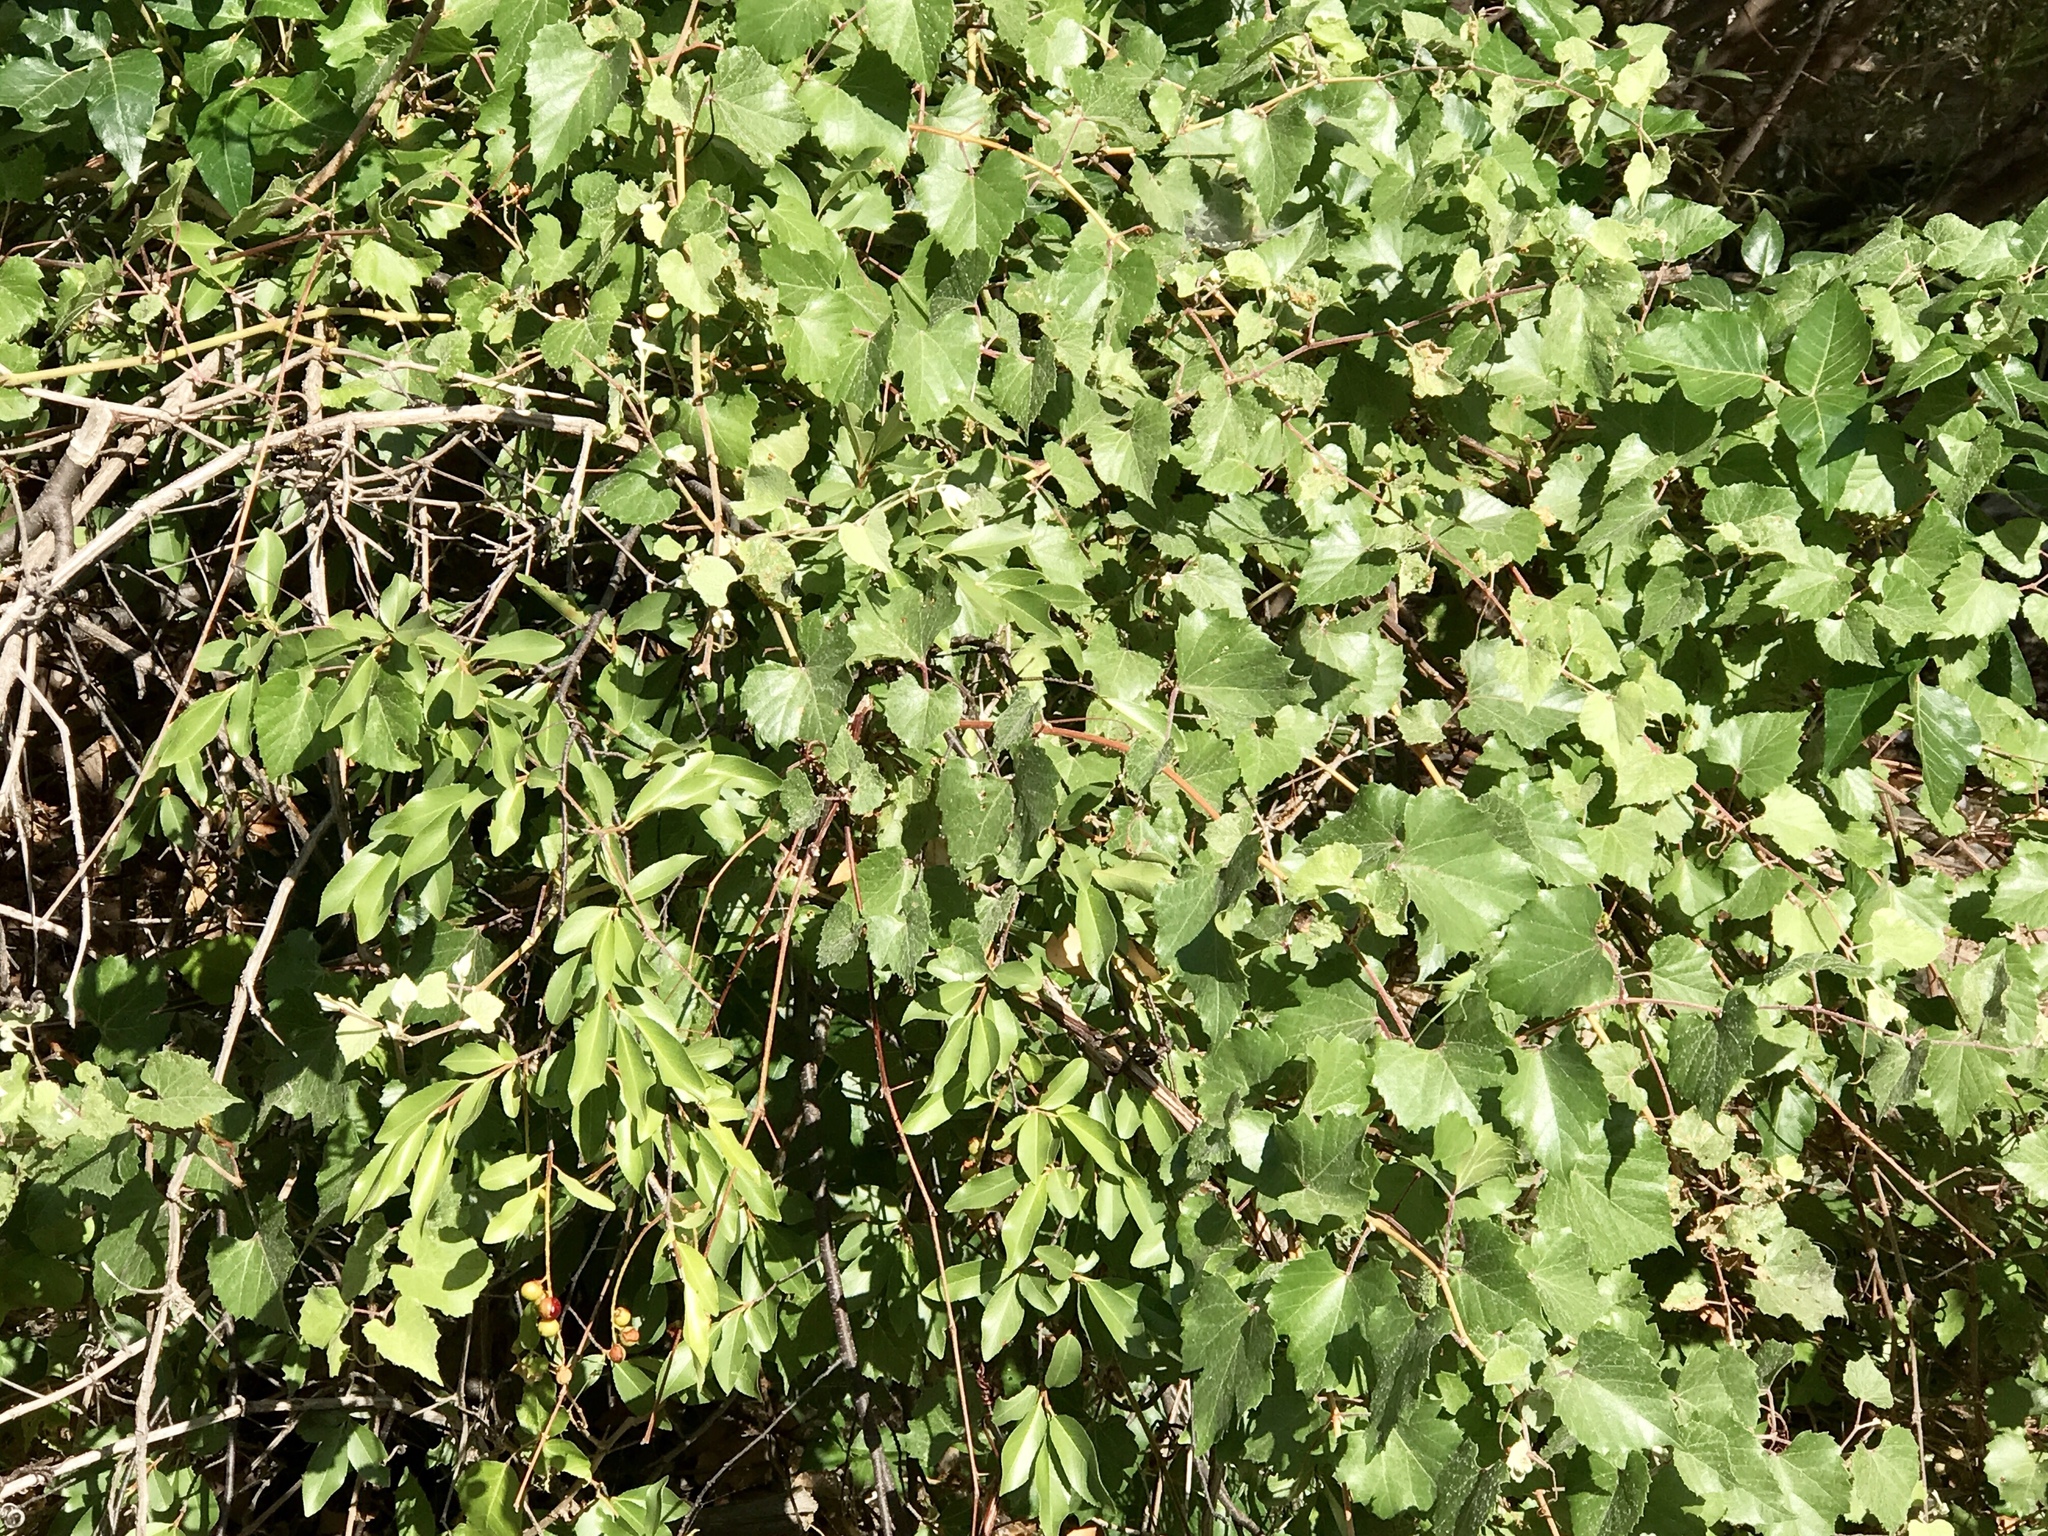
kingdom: Plantae
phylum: Tracheophyta
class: Magnoliopsida
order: Vitales
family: Vitaceae
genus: Vitis
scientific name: Vitis arizonica
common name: Canyon grape
